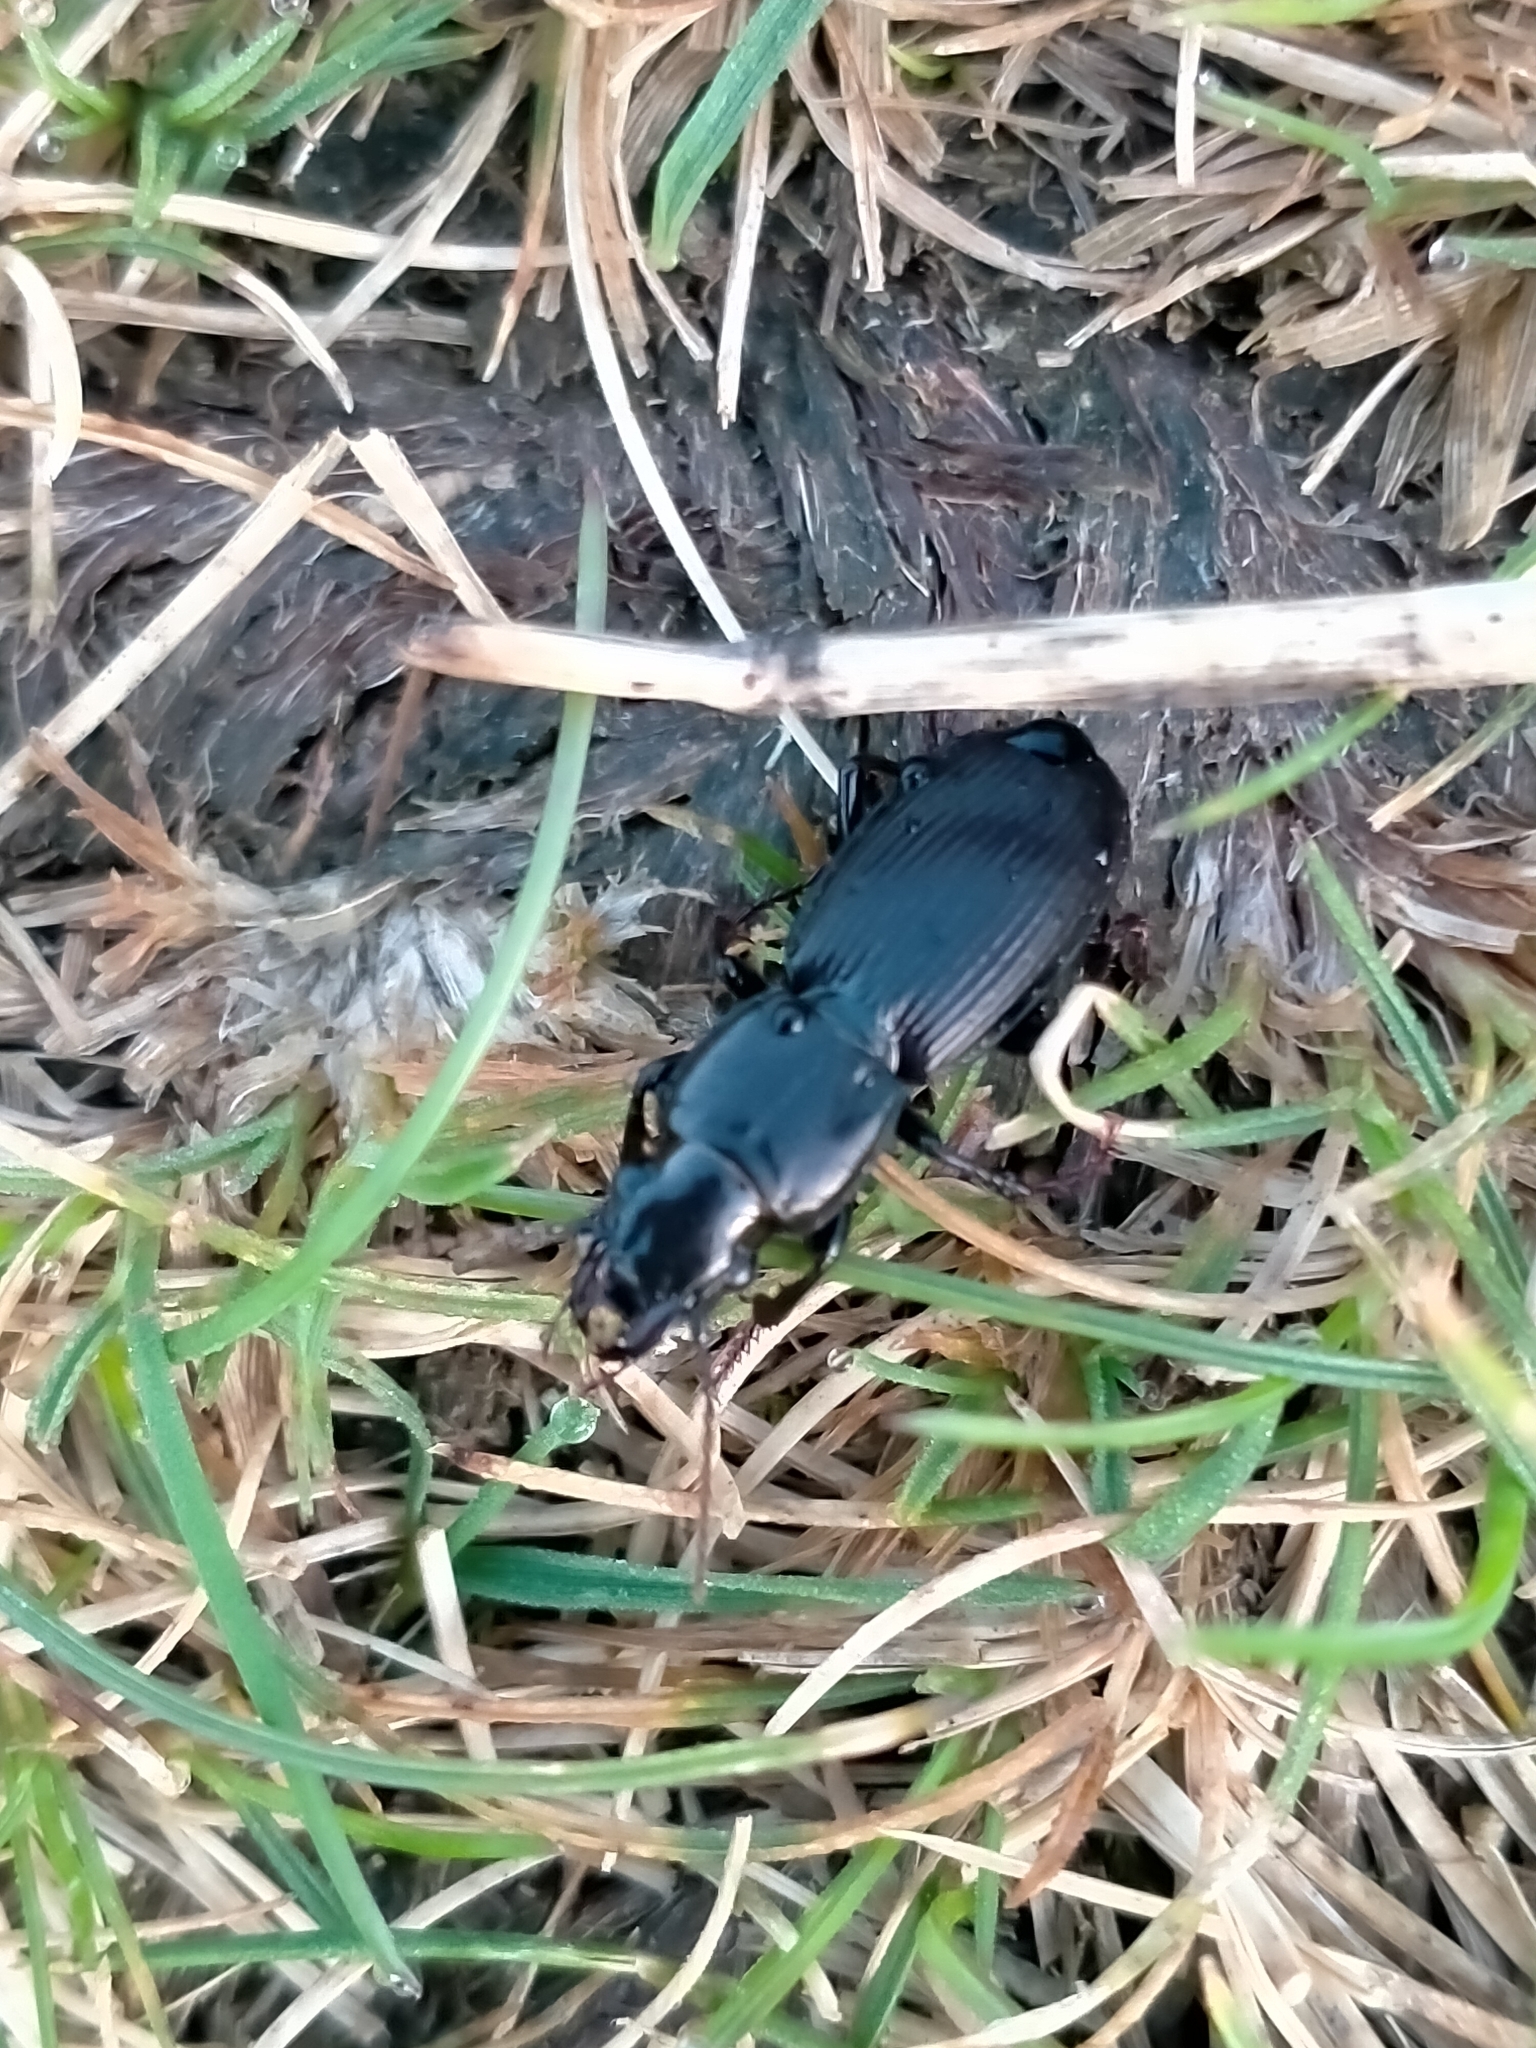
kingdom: Animalia
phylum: Arthropoda
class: Insecta
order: Coleoptera
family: Carabidae
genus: Plocamostethus
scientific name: Plocamostethus planiusculus
